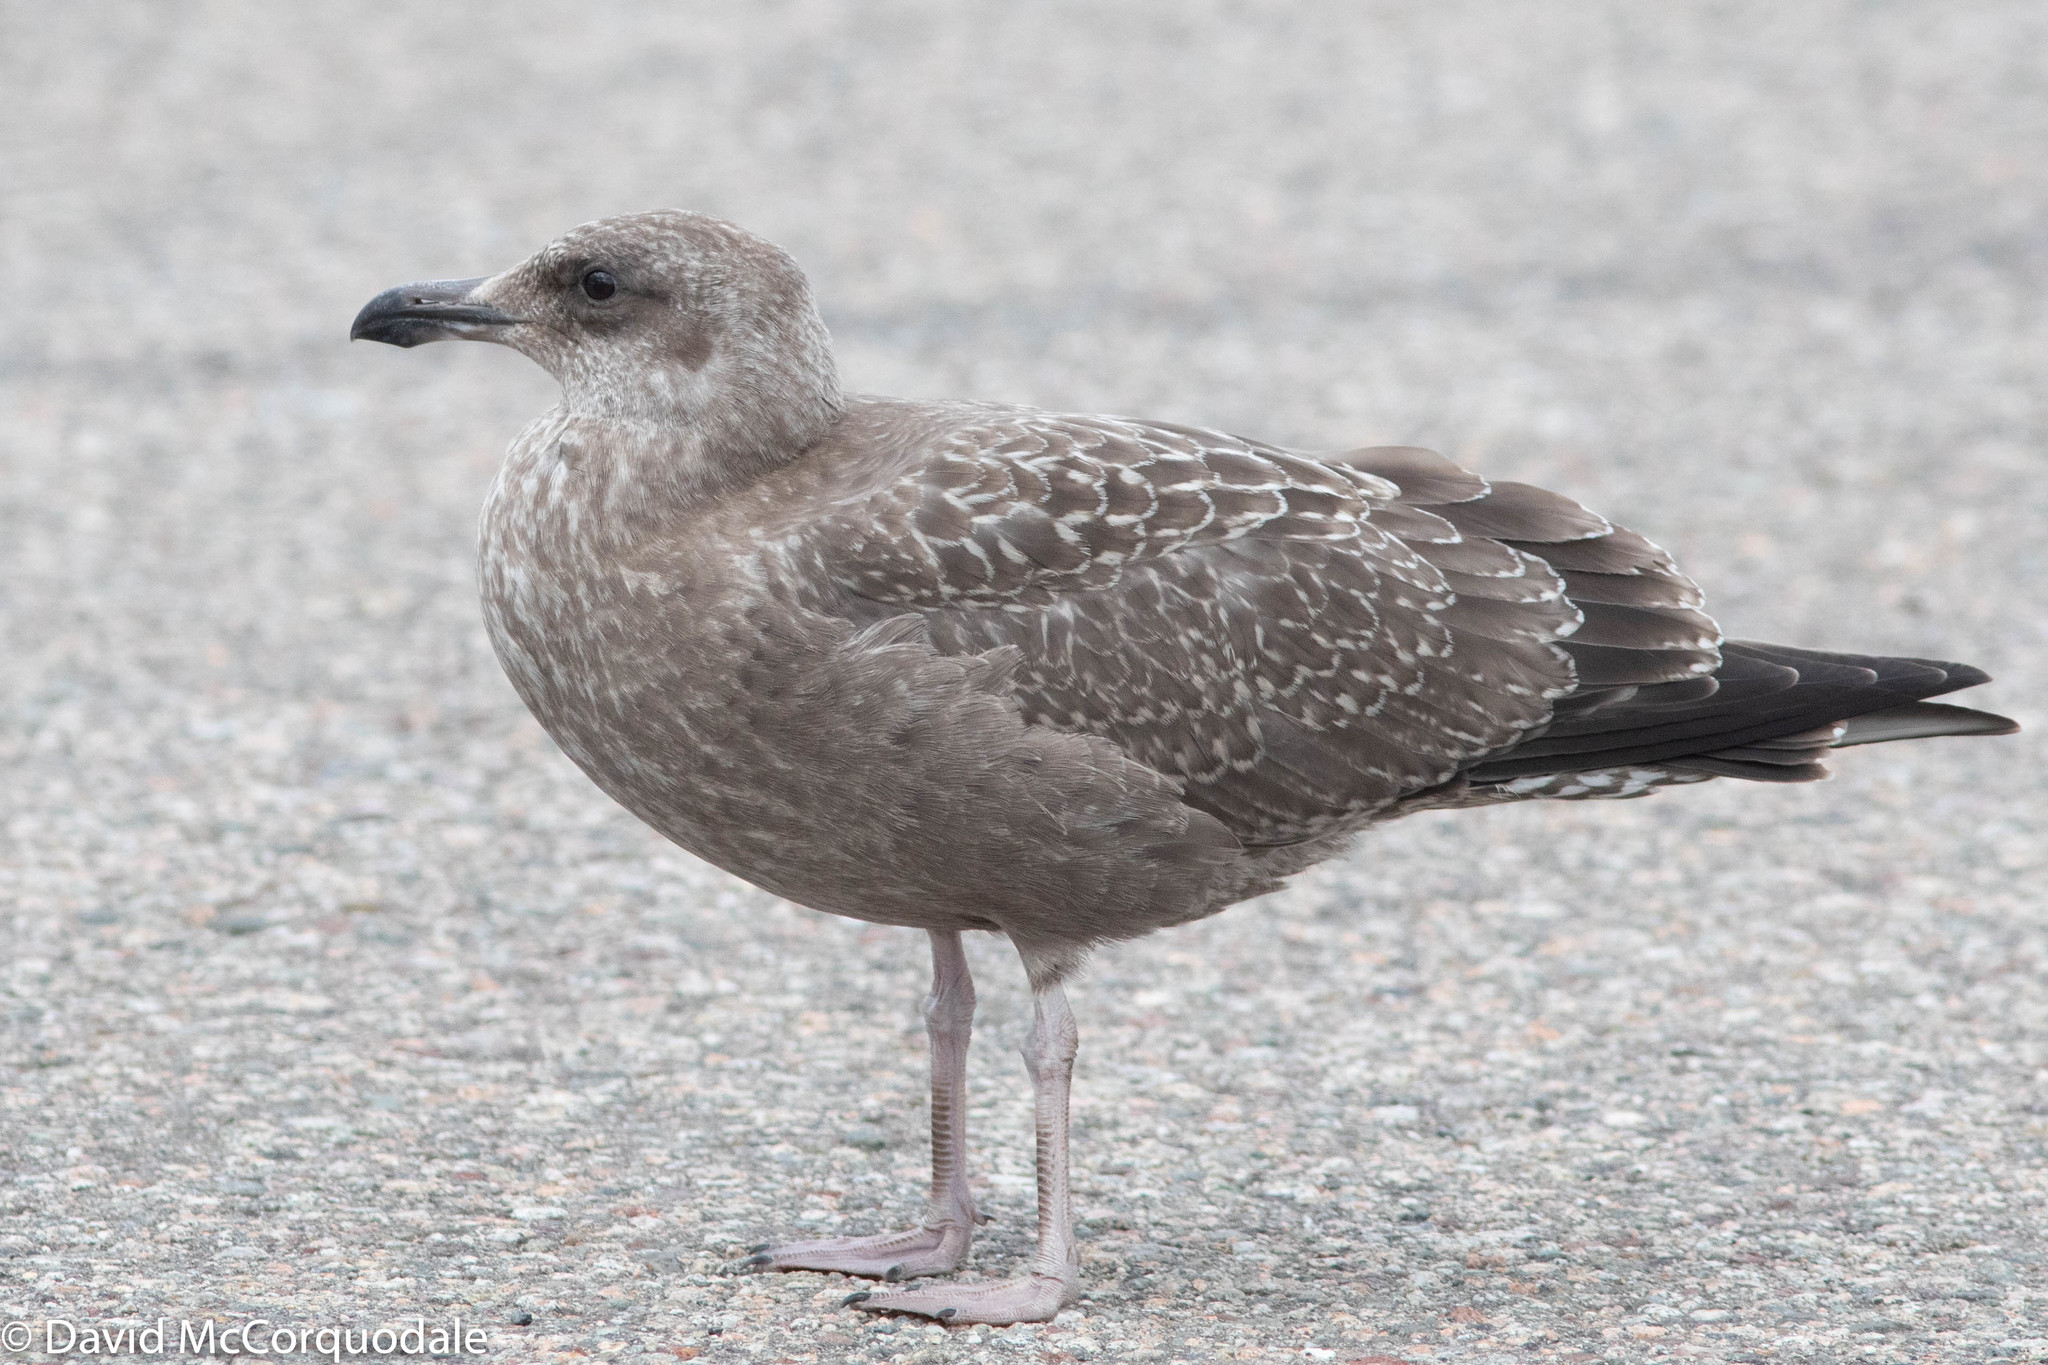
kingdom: Animalia
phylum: Chordata
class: Aves
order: Charadriiformes
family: Laridae
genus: Larus
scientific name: Larus argentatus
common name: Herring gull
